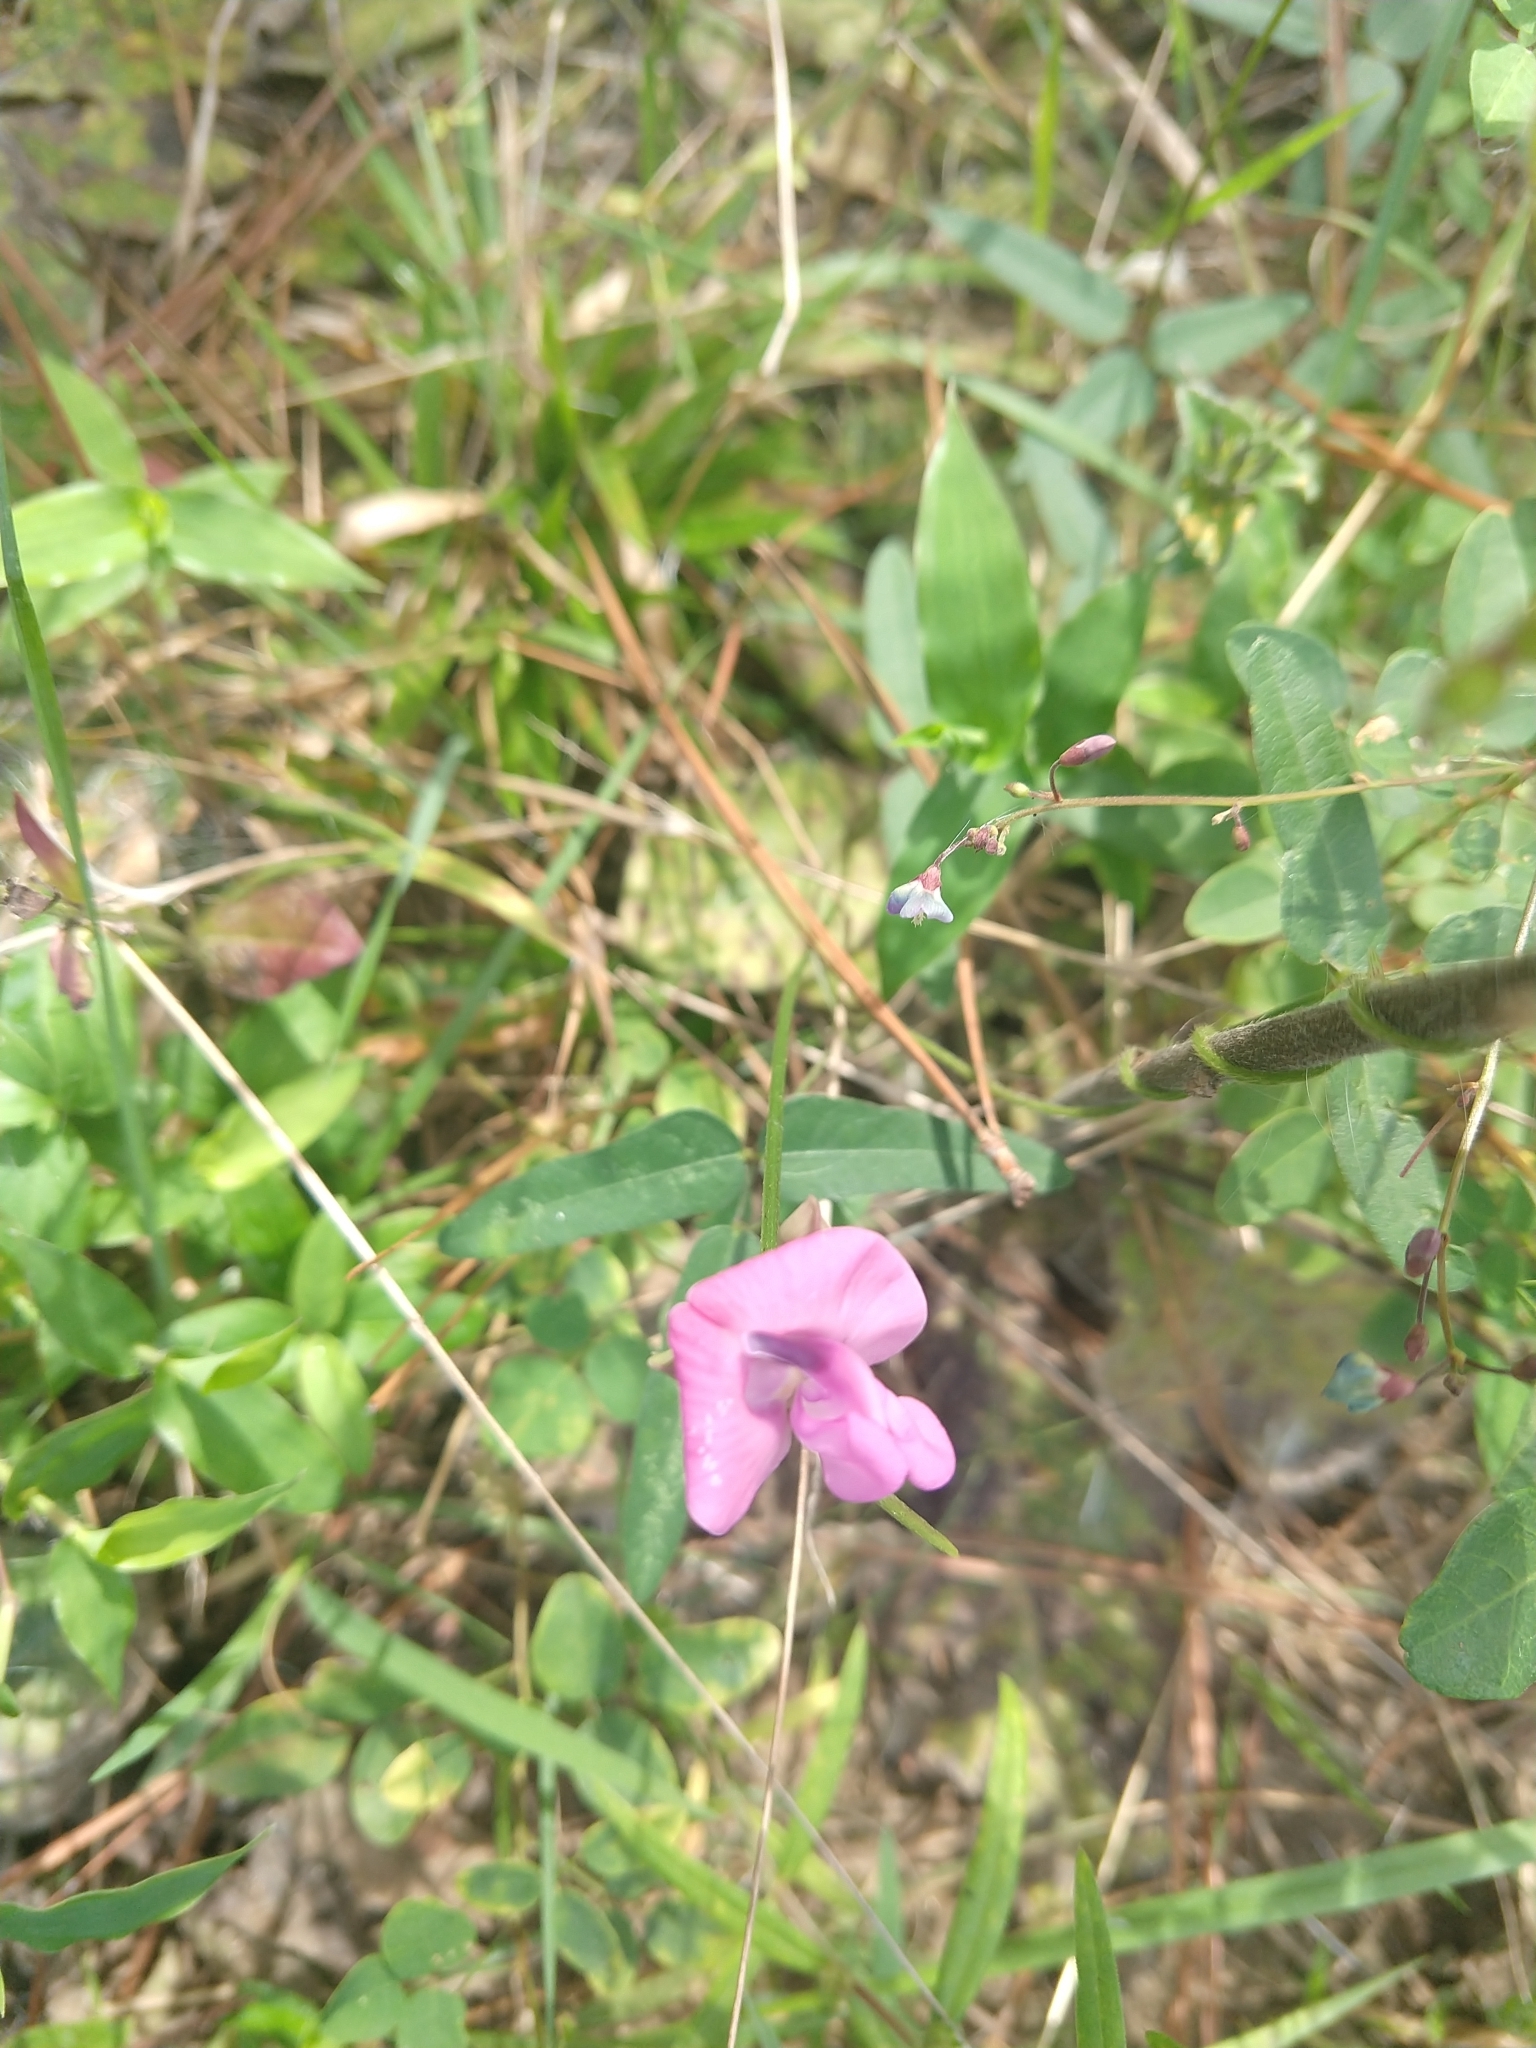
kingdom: Plantae
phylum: Tracheophyta
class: Magnoliopsida
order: Fabales
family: Fabaceae
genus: Strophostyles
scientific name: Strophostyles umbellata
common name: Perennial wild bean
